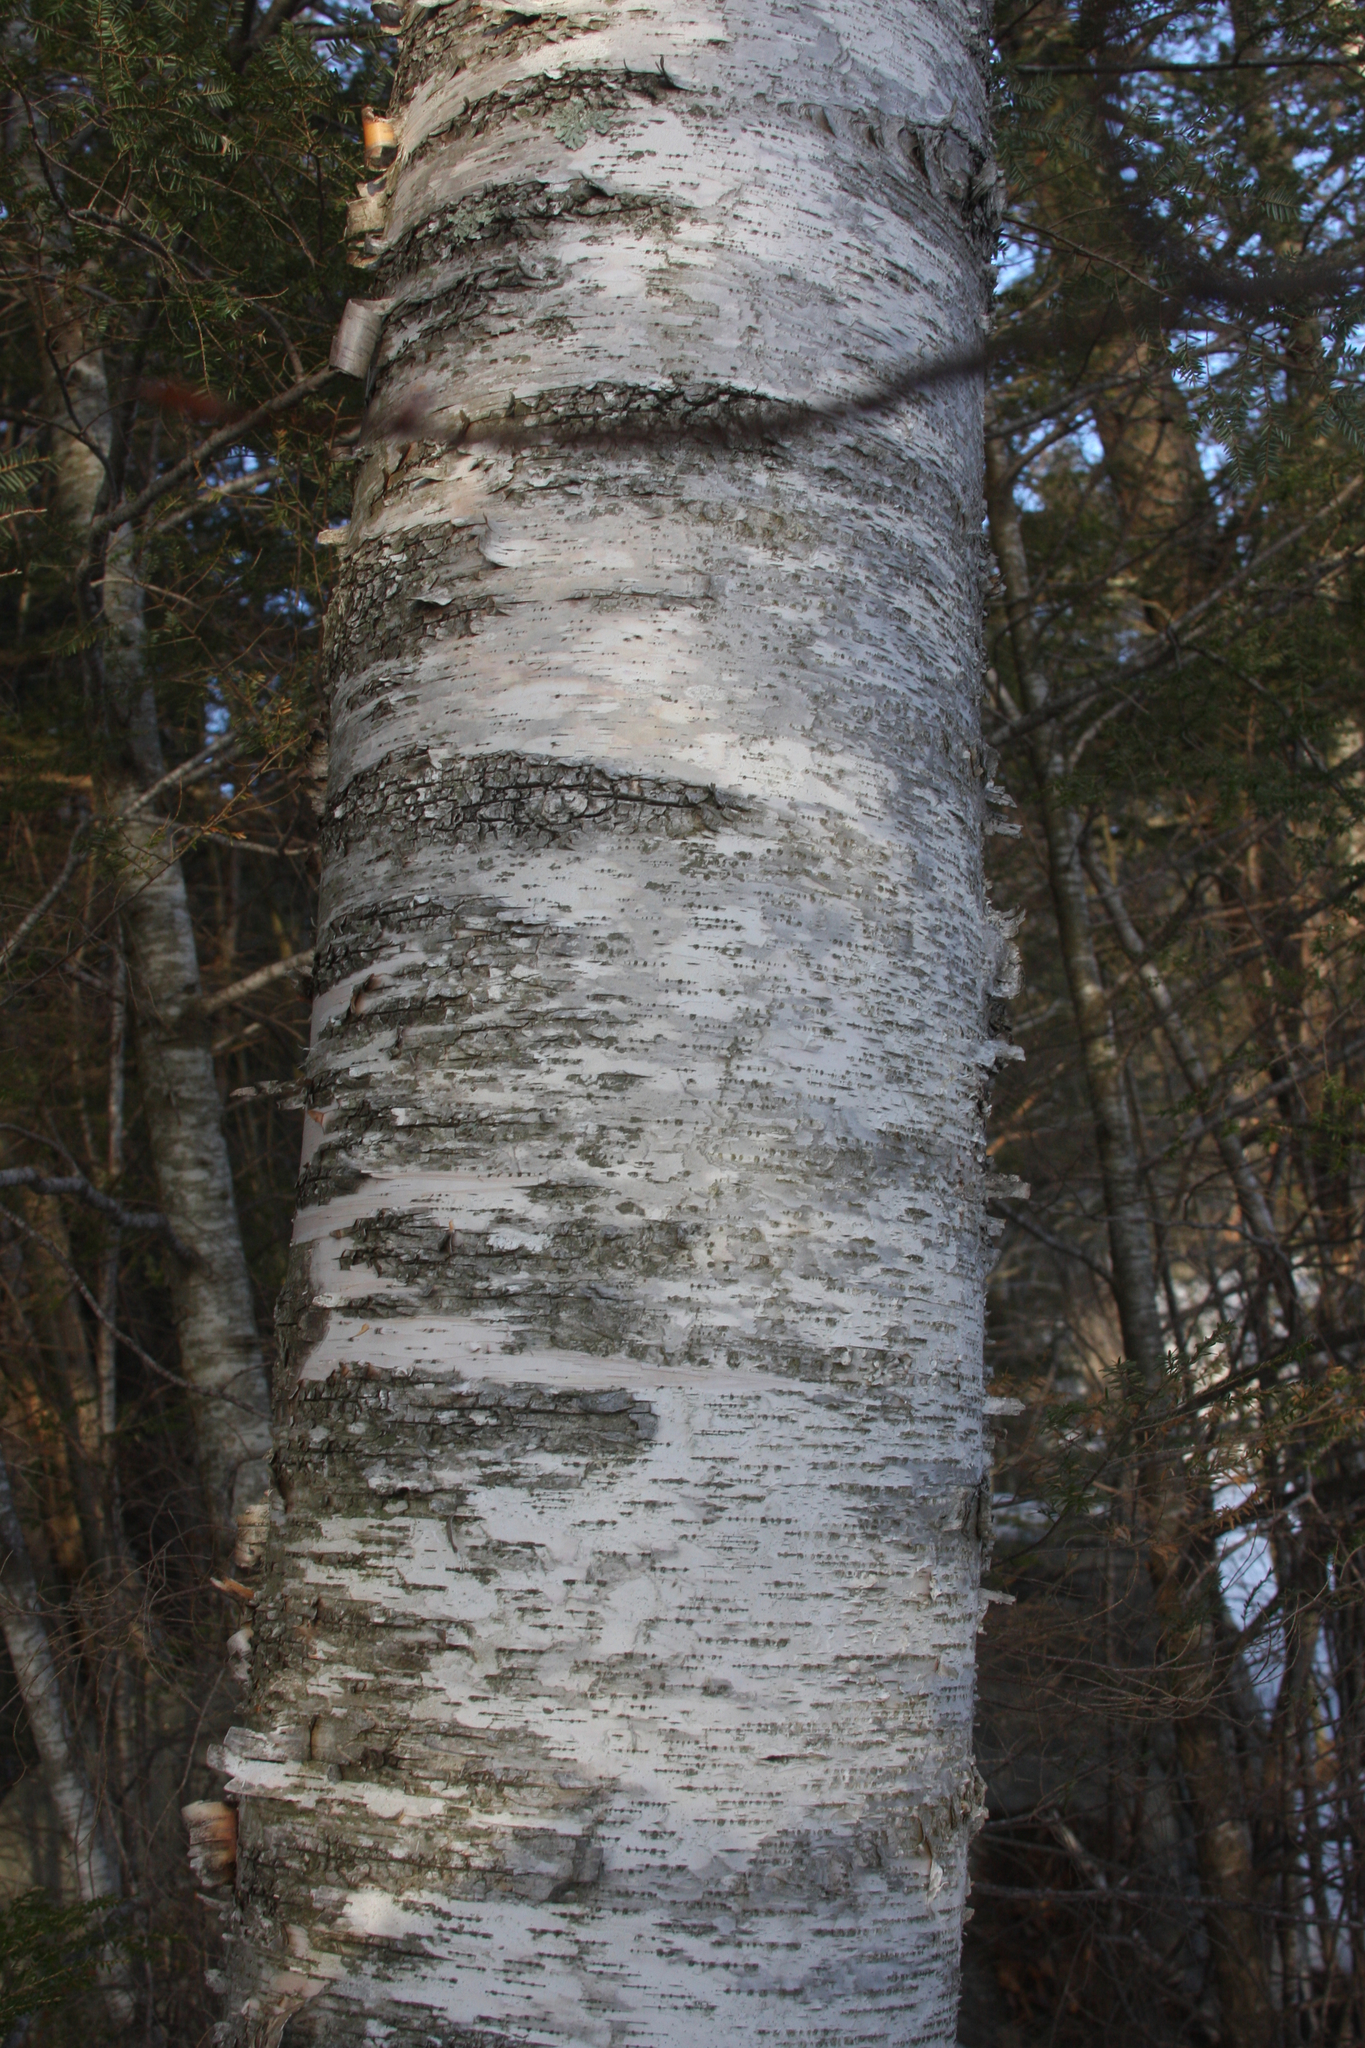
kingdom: Plantae
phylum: Tracheophyta
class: Magnoliopsida
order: Fagales
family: Betulaceae
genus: Betula
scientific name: Betula papyrifera
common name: Paper birch
